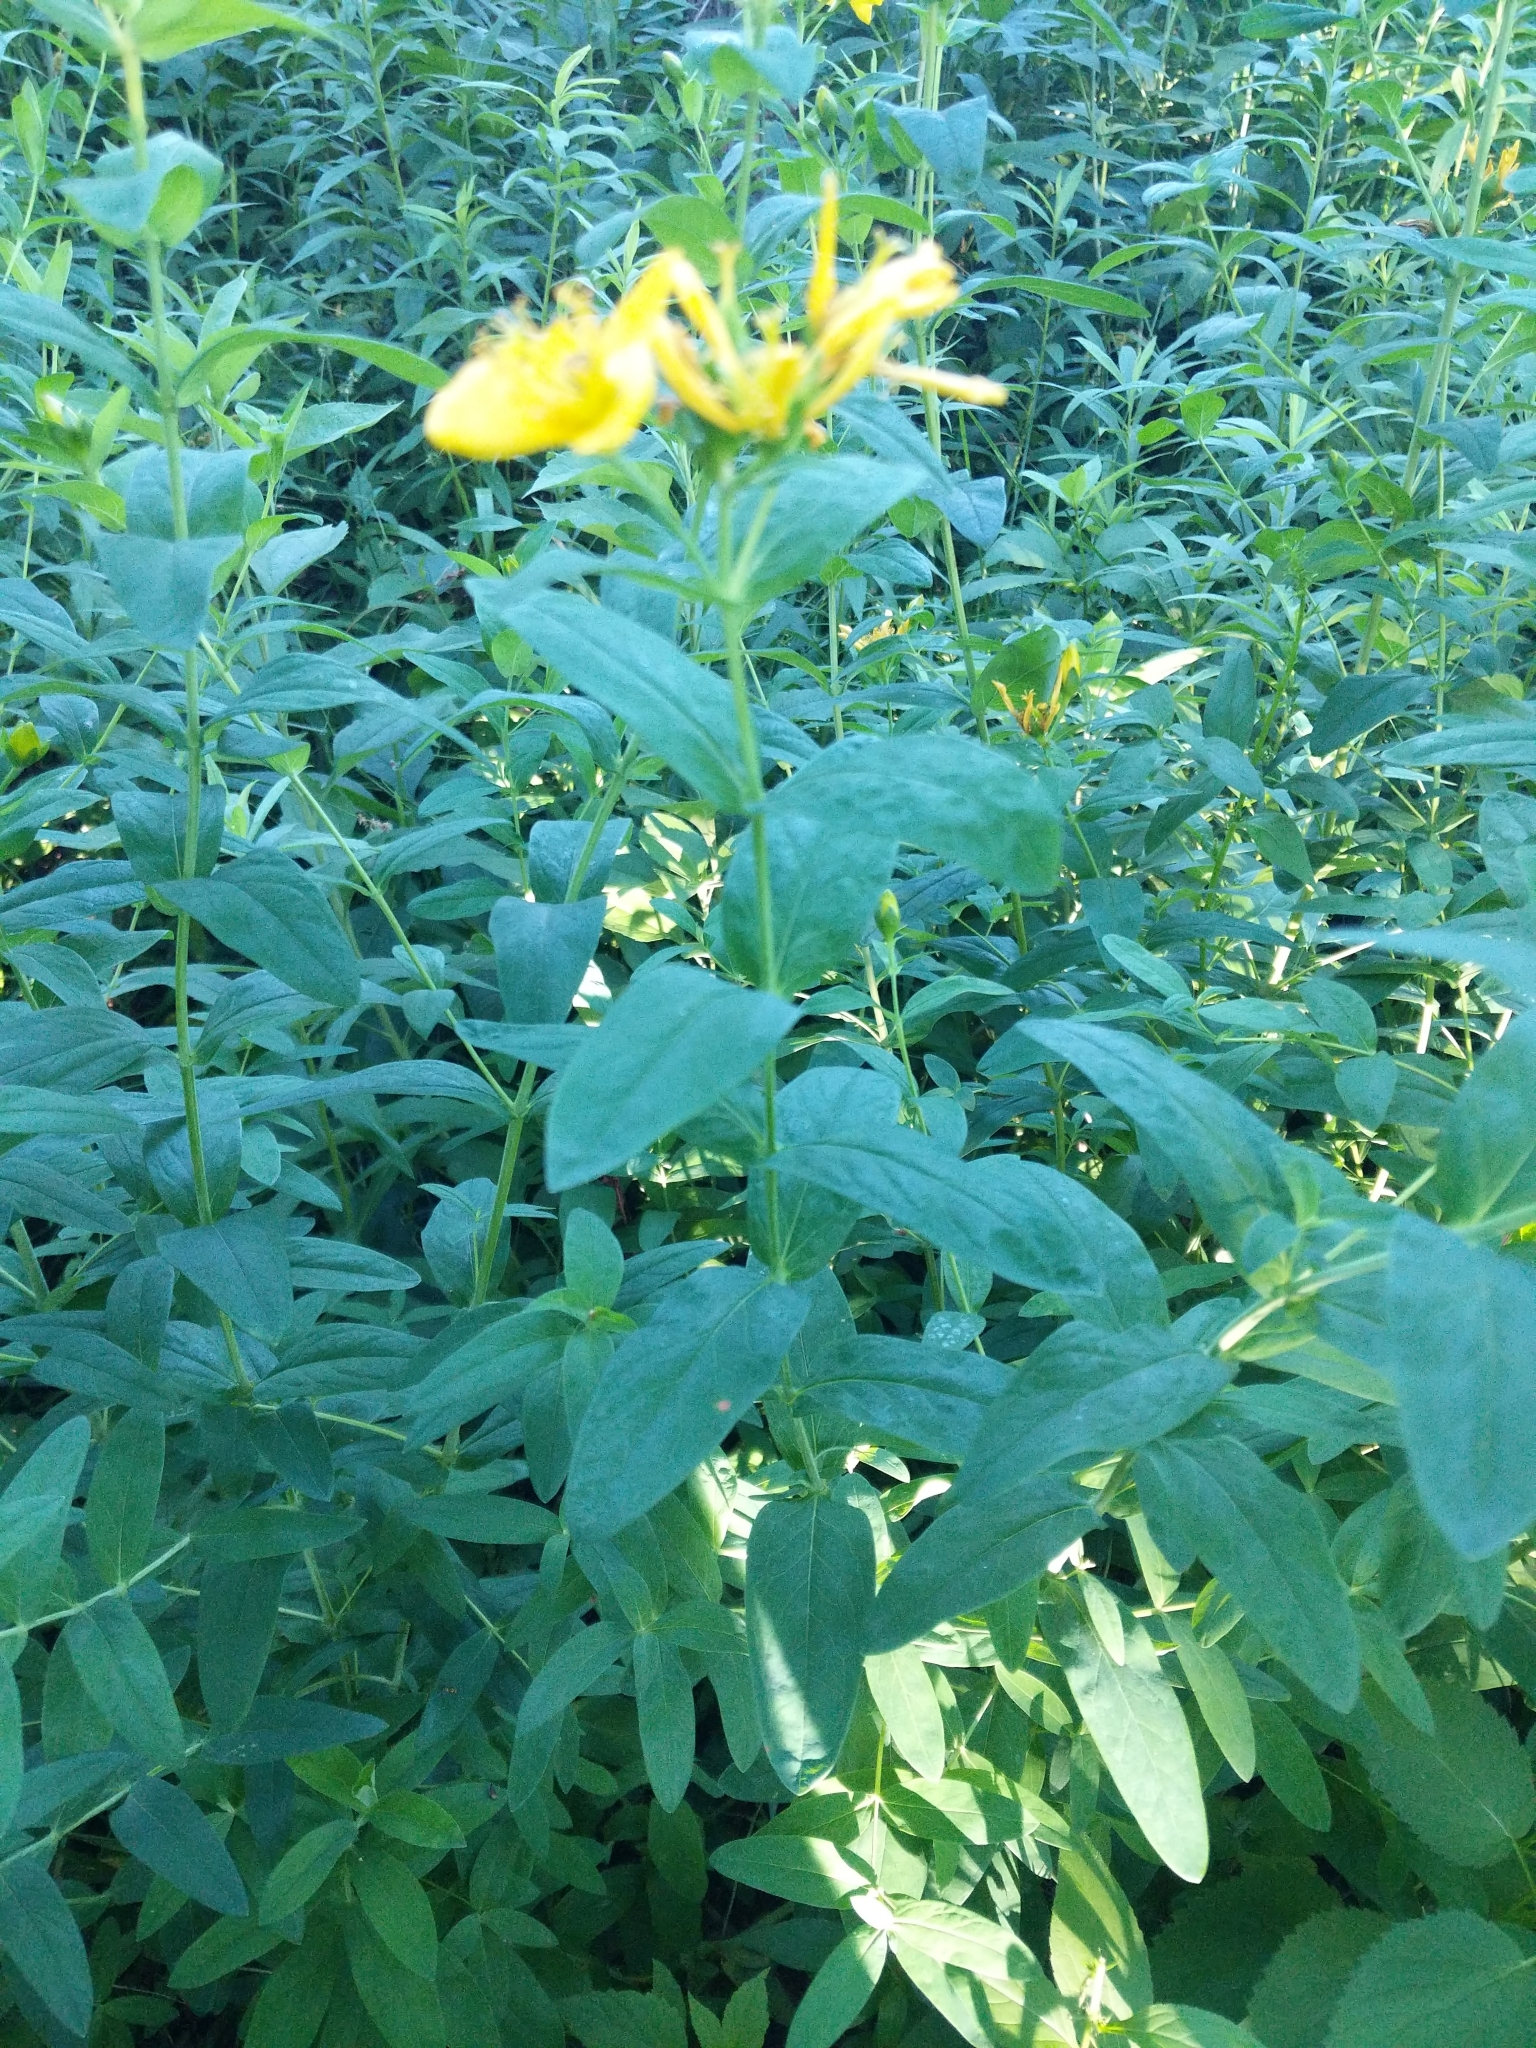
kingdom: Plantae
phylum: Tracheophyta
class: Magnoliopsida
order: Malpighiales
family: Hypericaceae
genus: Hypericum
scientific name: Hypericum ascyron
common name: Giant st. john's-wort
